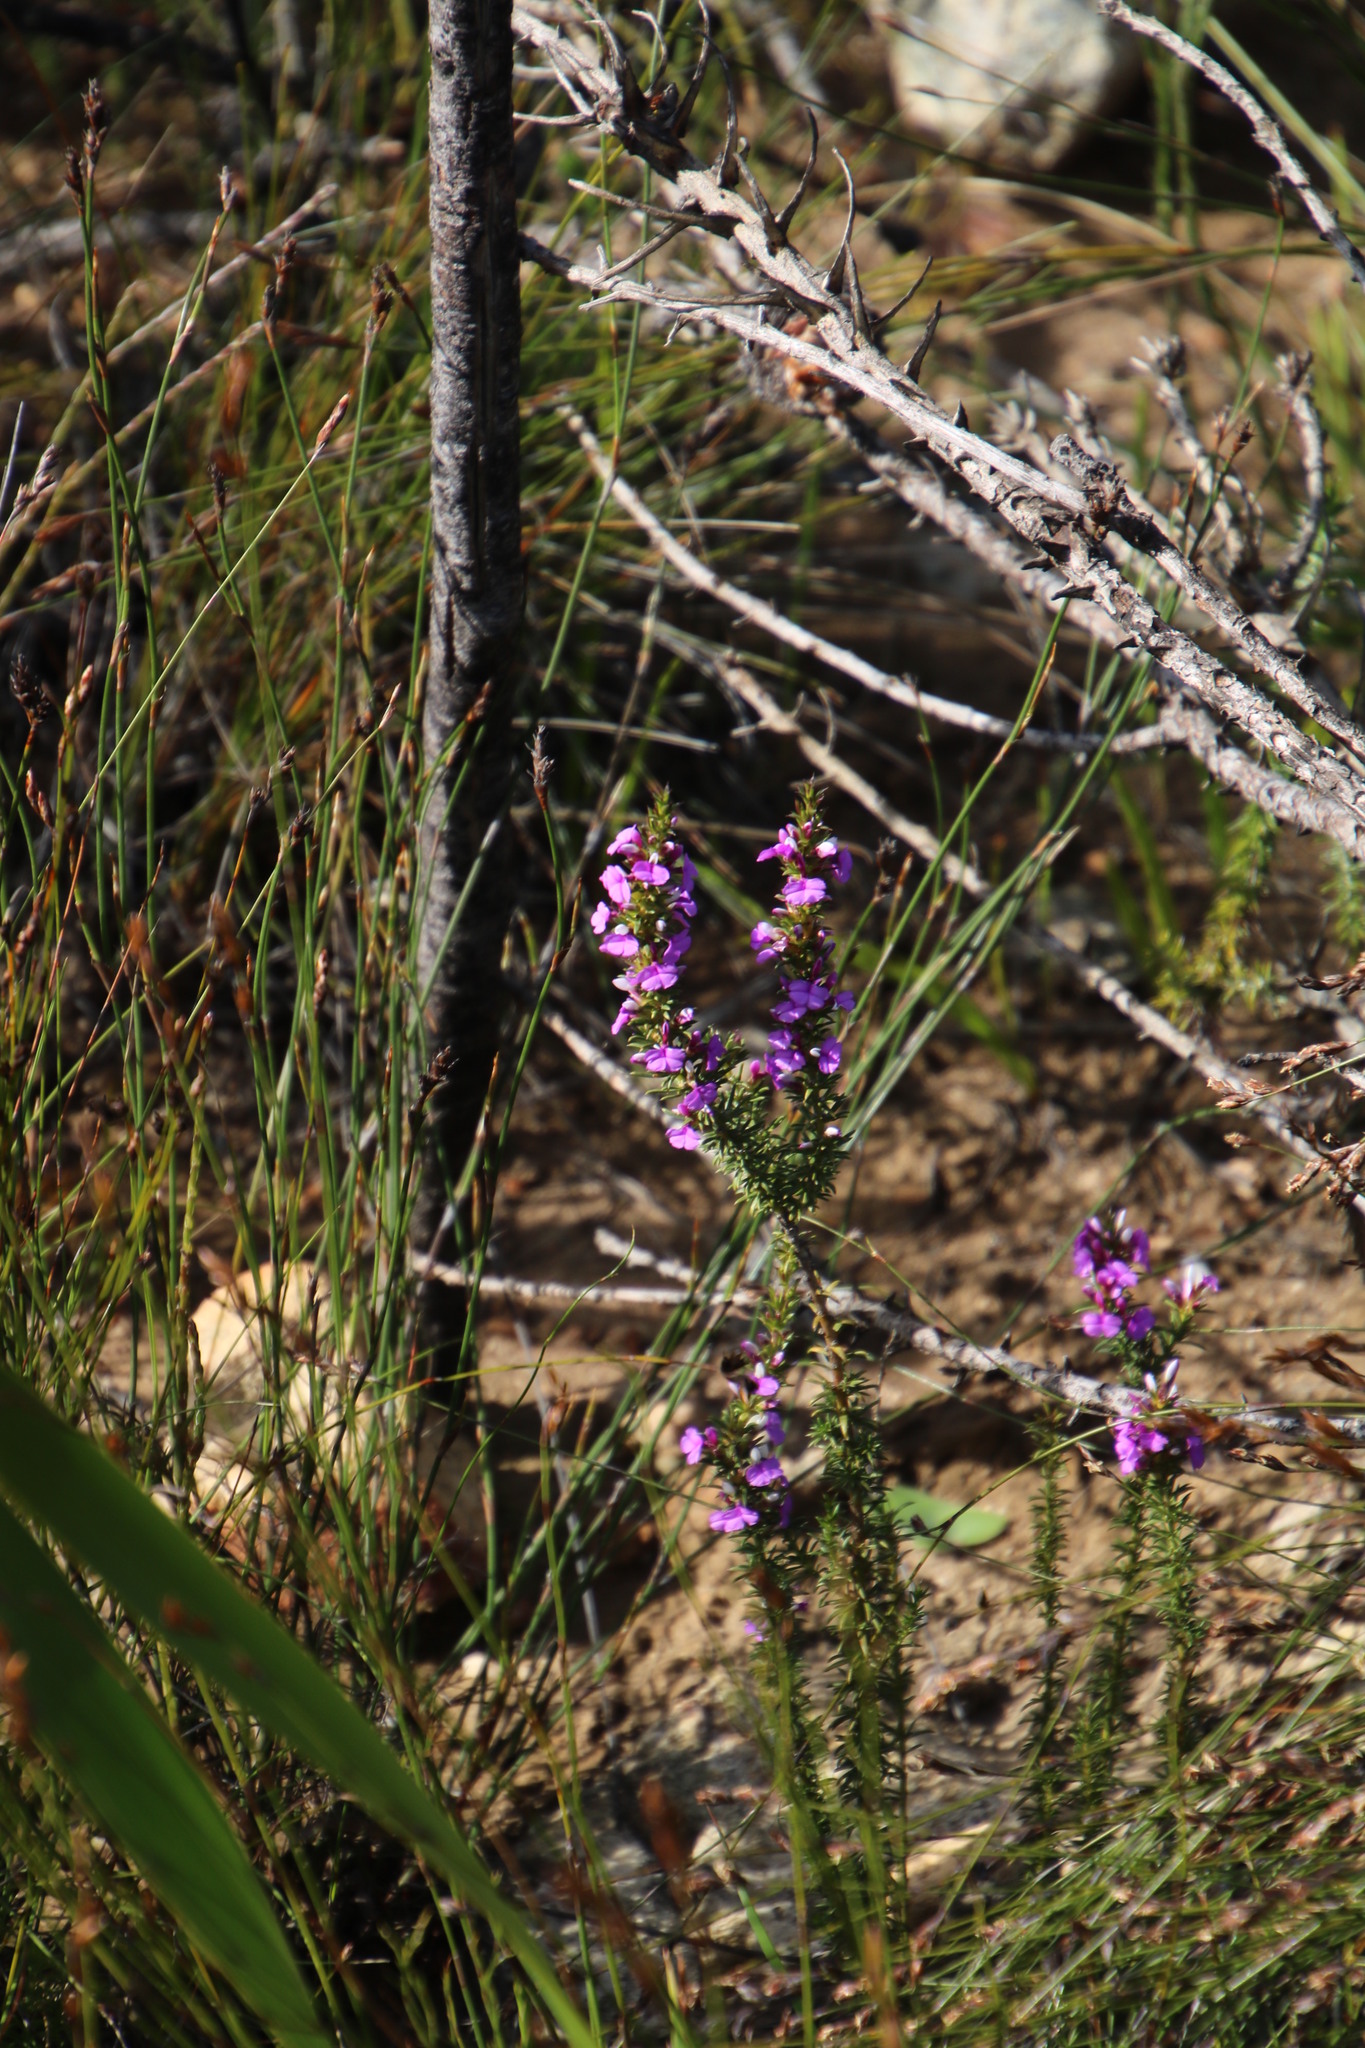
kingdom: Plantae
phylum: Tracheophyta
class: Magnoliopsida
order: Fabales
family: Polygalaceae
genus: Muraltia
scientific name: Muraltia heisteria
